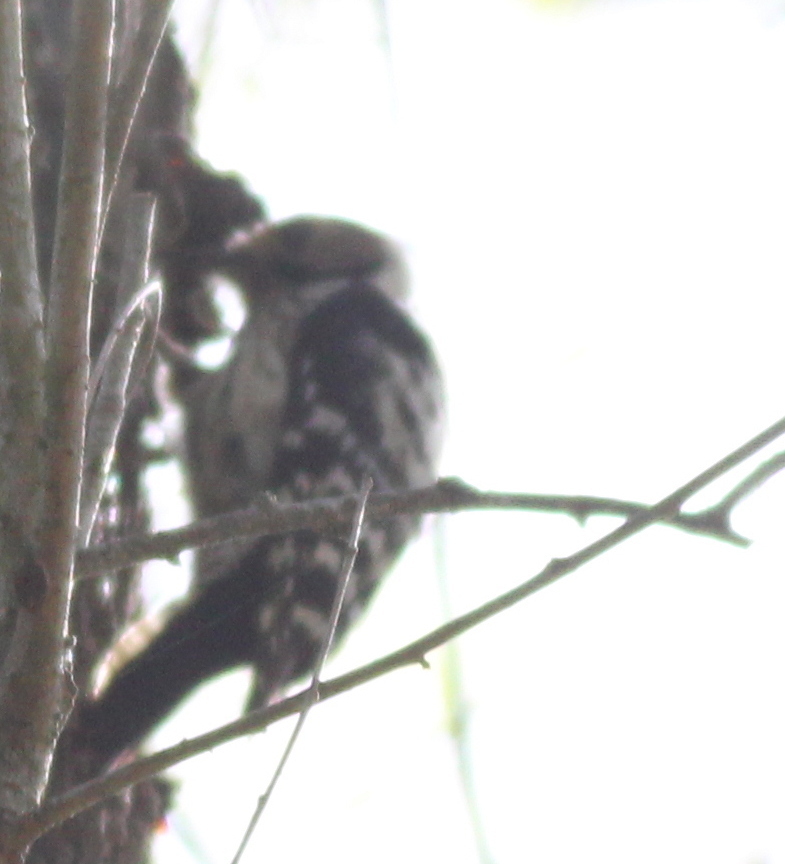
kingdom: Animalia
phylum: Chordata
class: Aves
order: Piciformes
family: Picidae
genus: Dryobates
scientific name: Dryobates minor
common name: Lesser spotted woodpecker
